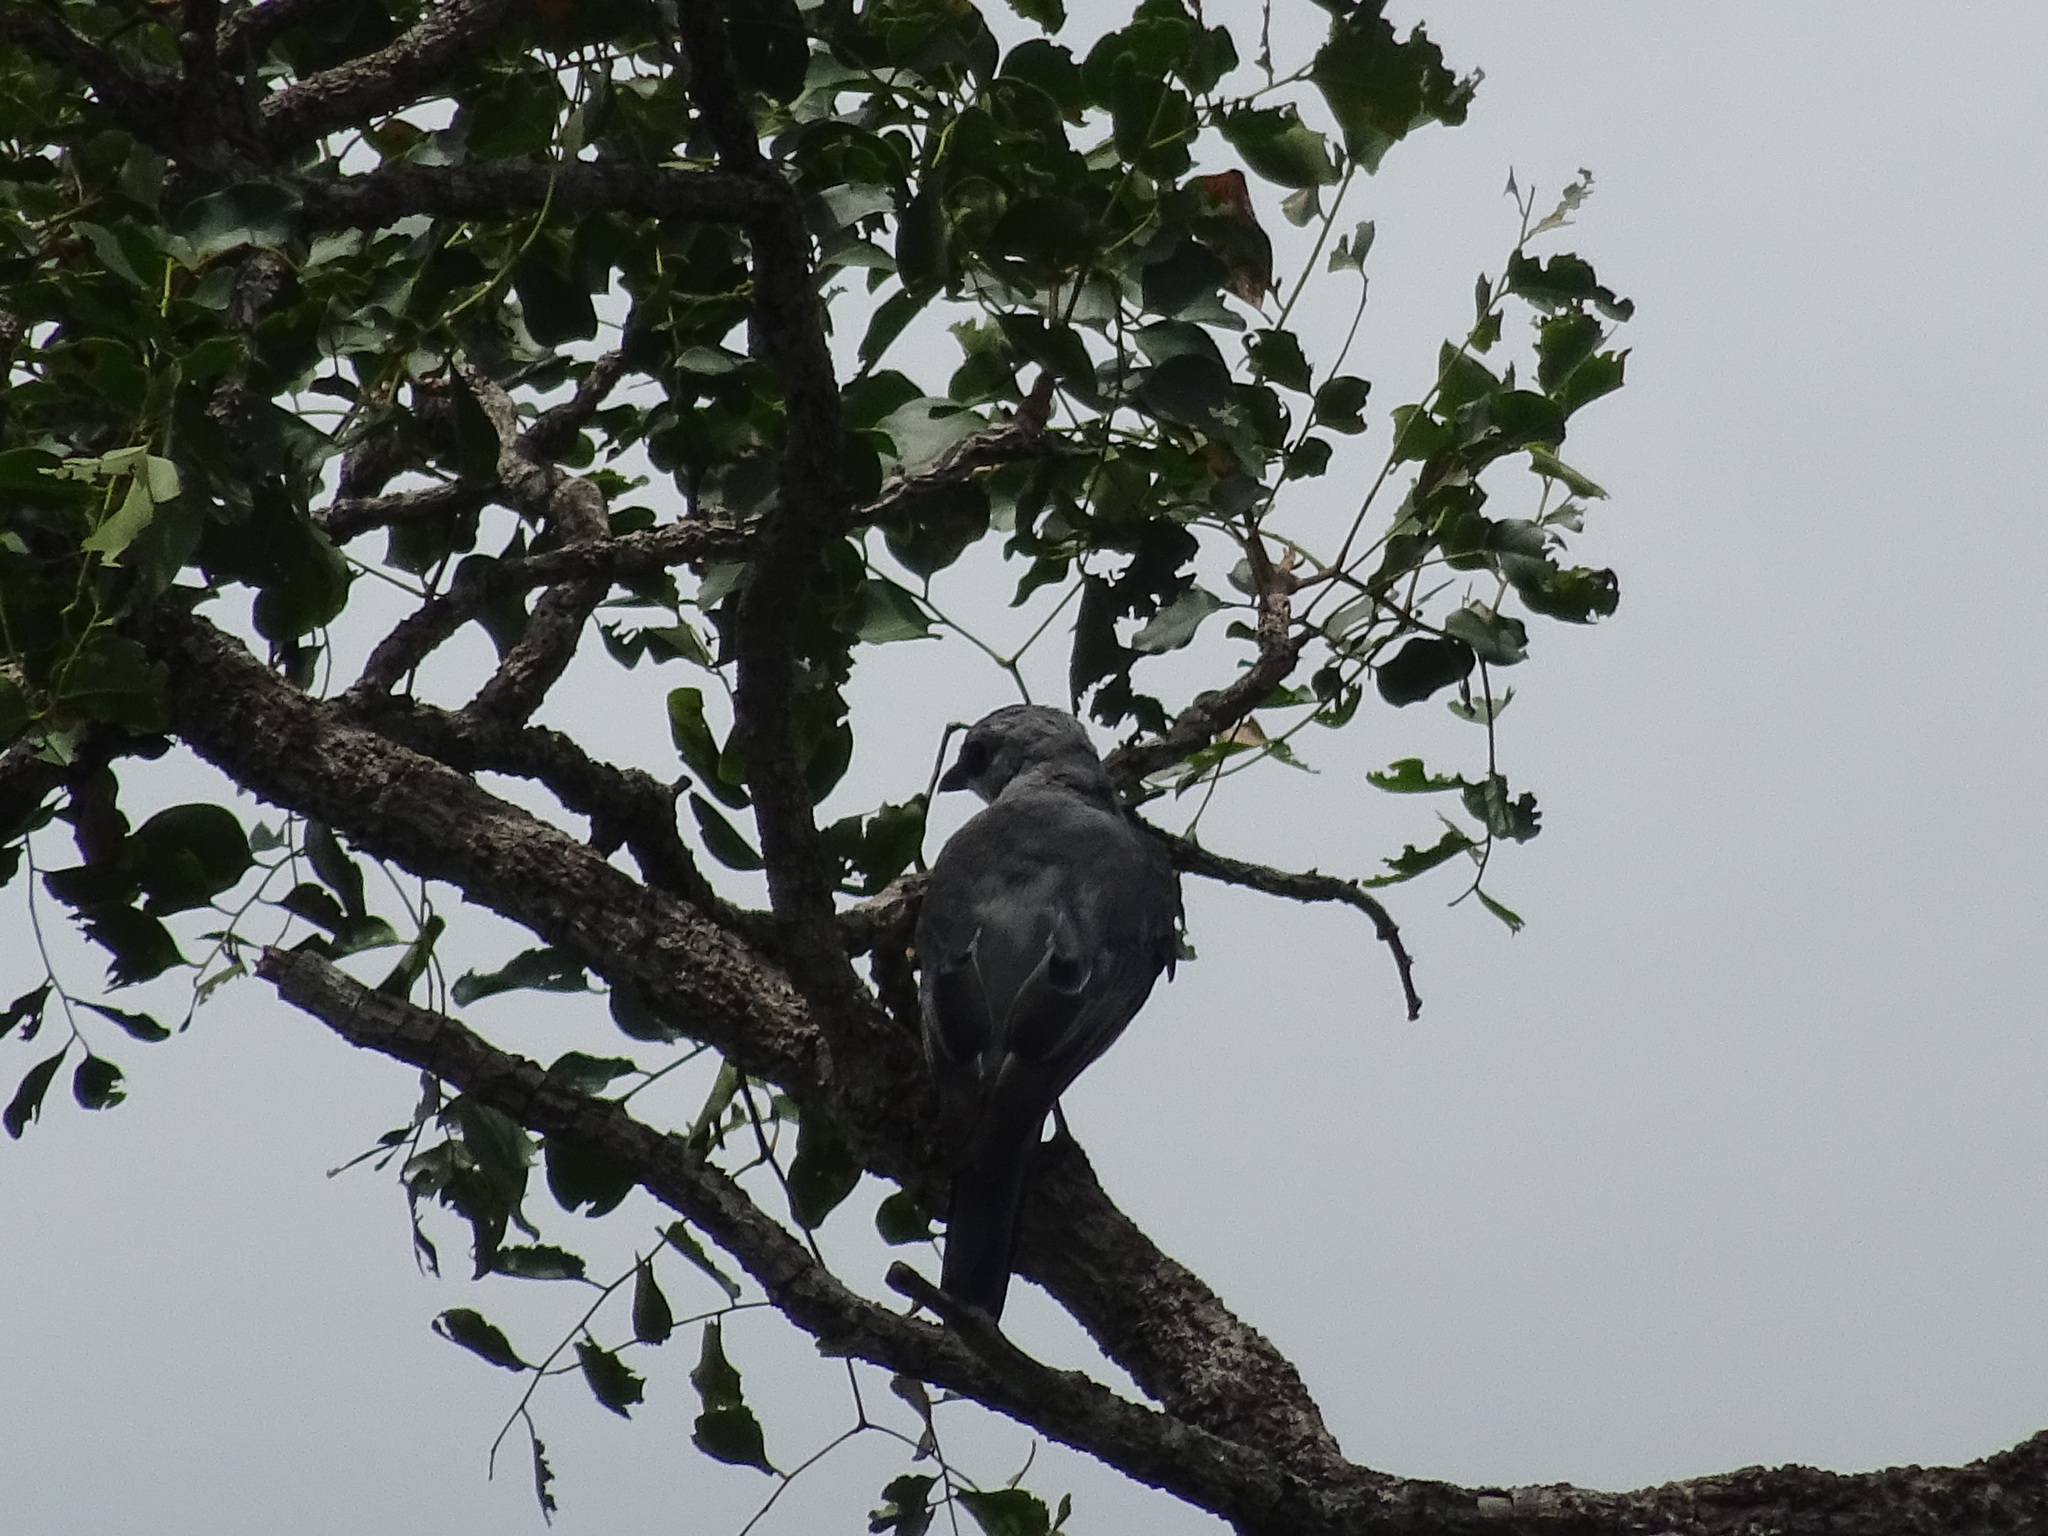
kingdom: Animalia
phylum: Chordata
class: Aves
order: Passeriformes
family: Campephagidae
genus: Coracina
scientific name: Coracina papuensis
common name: White-bellied cuckooshrike
